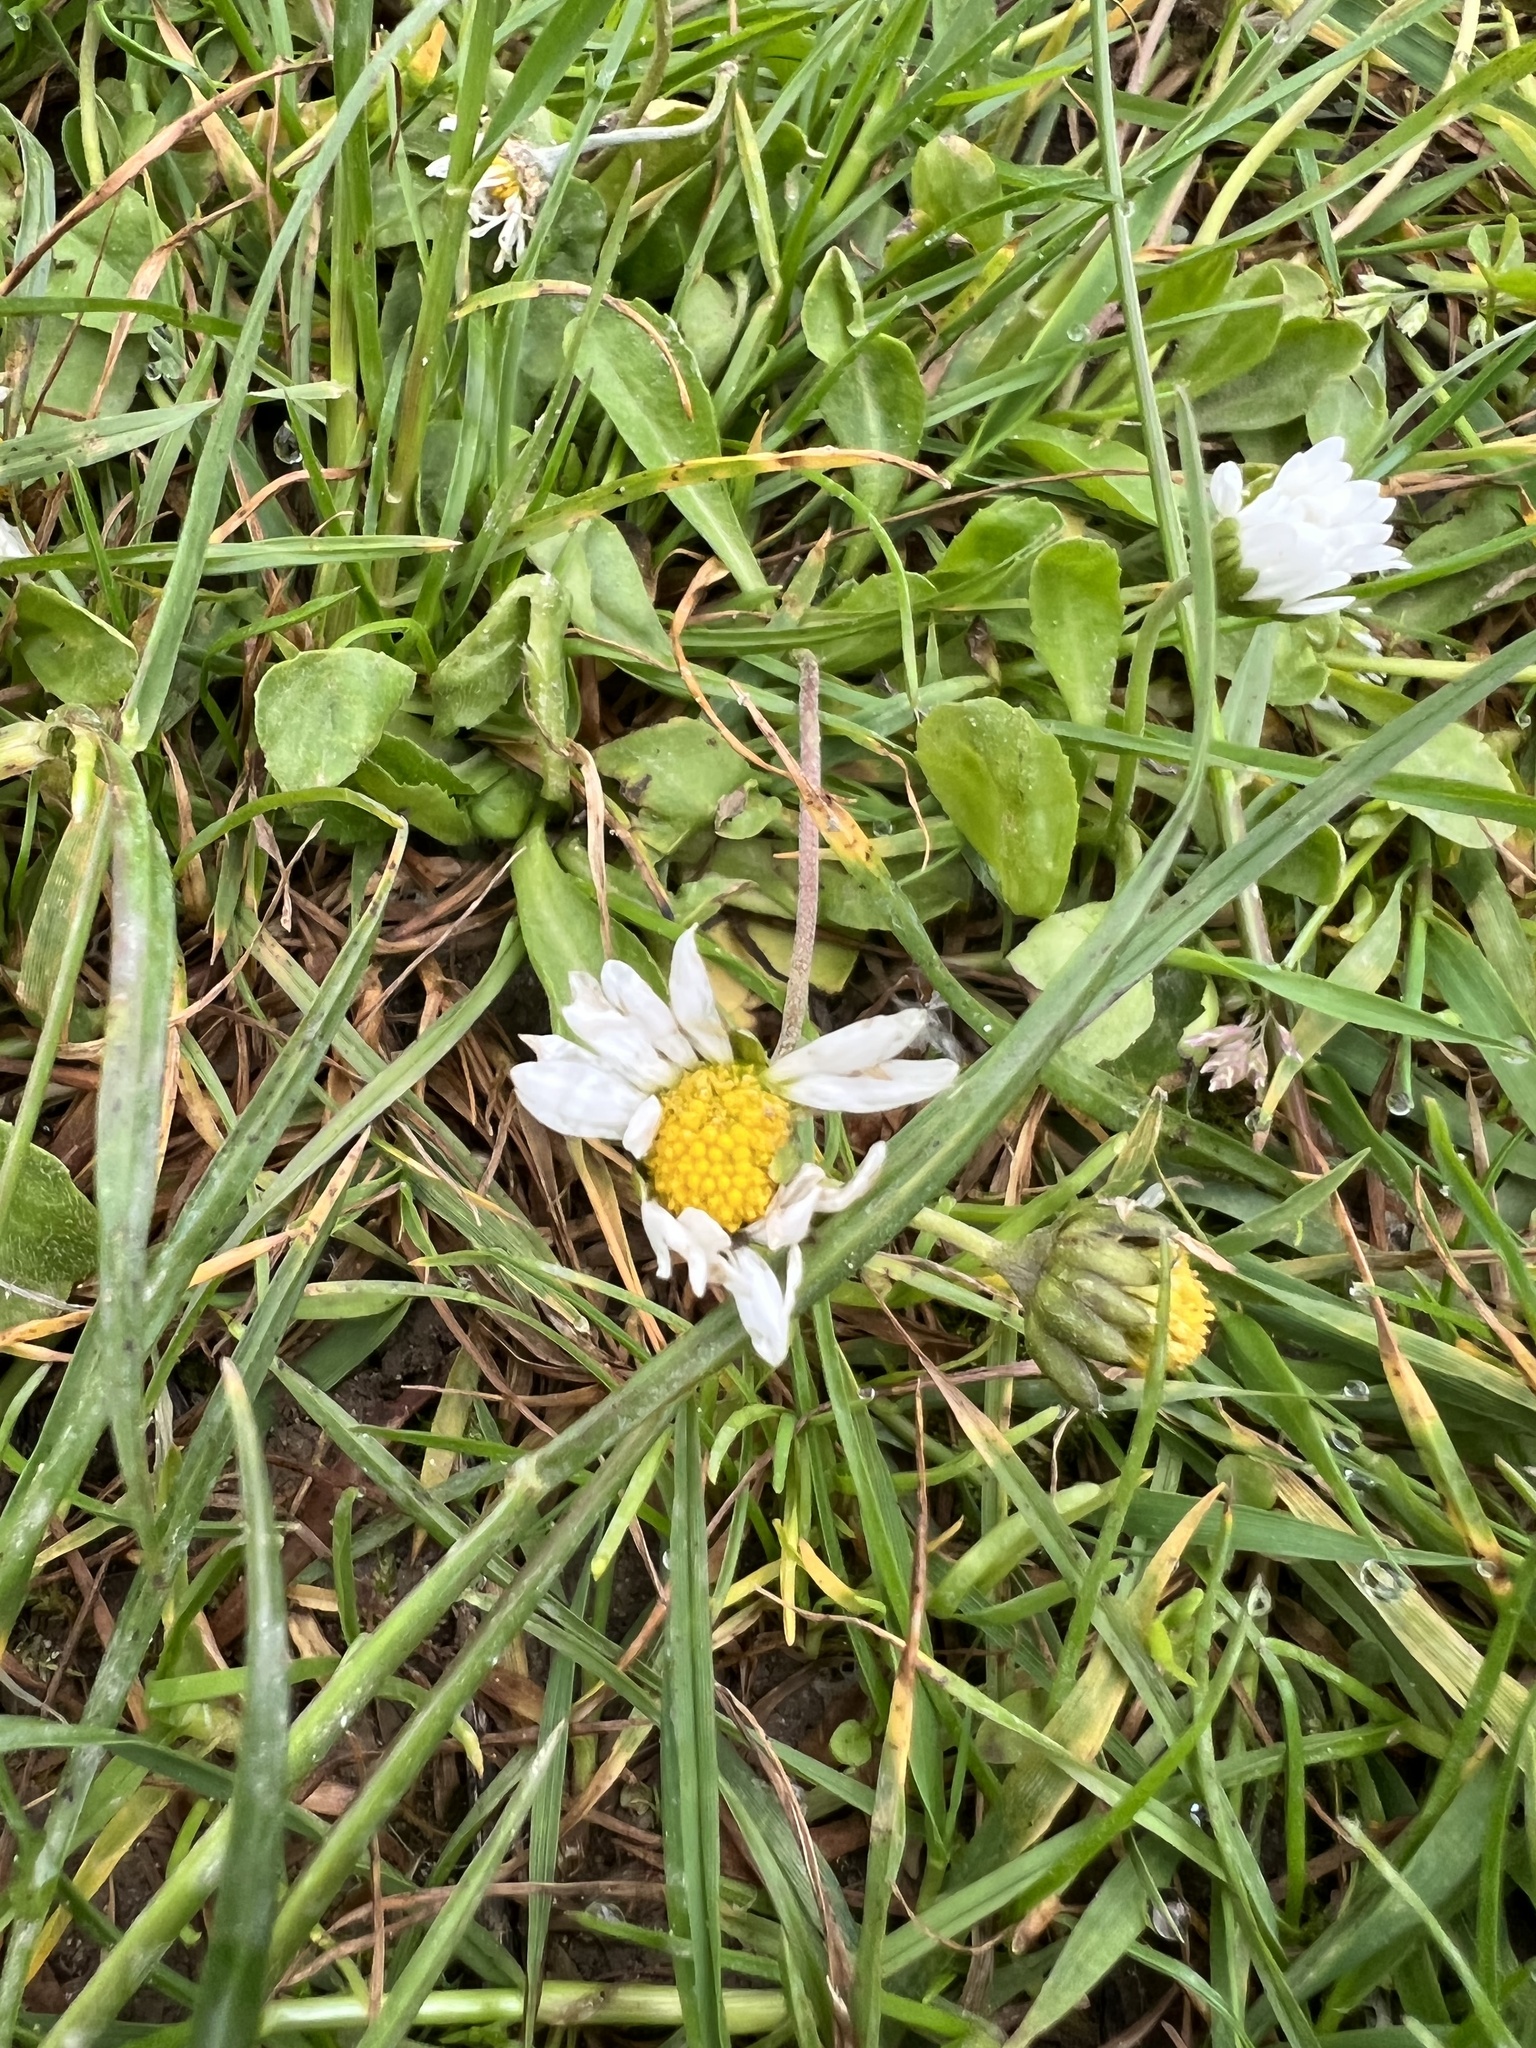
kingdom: Plantae
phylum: Tracheophyta
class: Magnoliopsida
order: Asterales
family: Asteraceae
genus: Bellis
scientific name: Bellis perennis
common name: Lawndaisy
